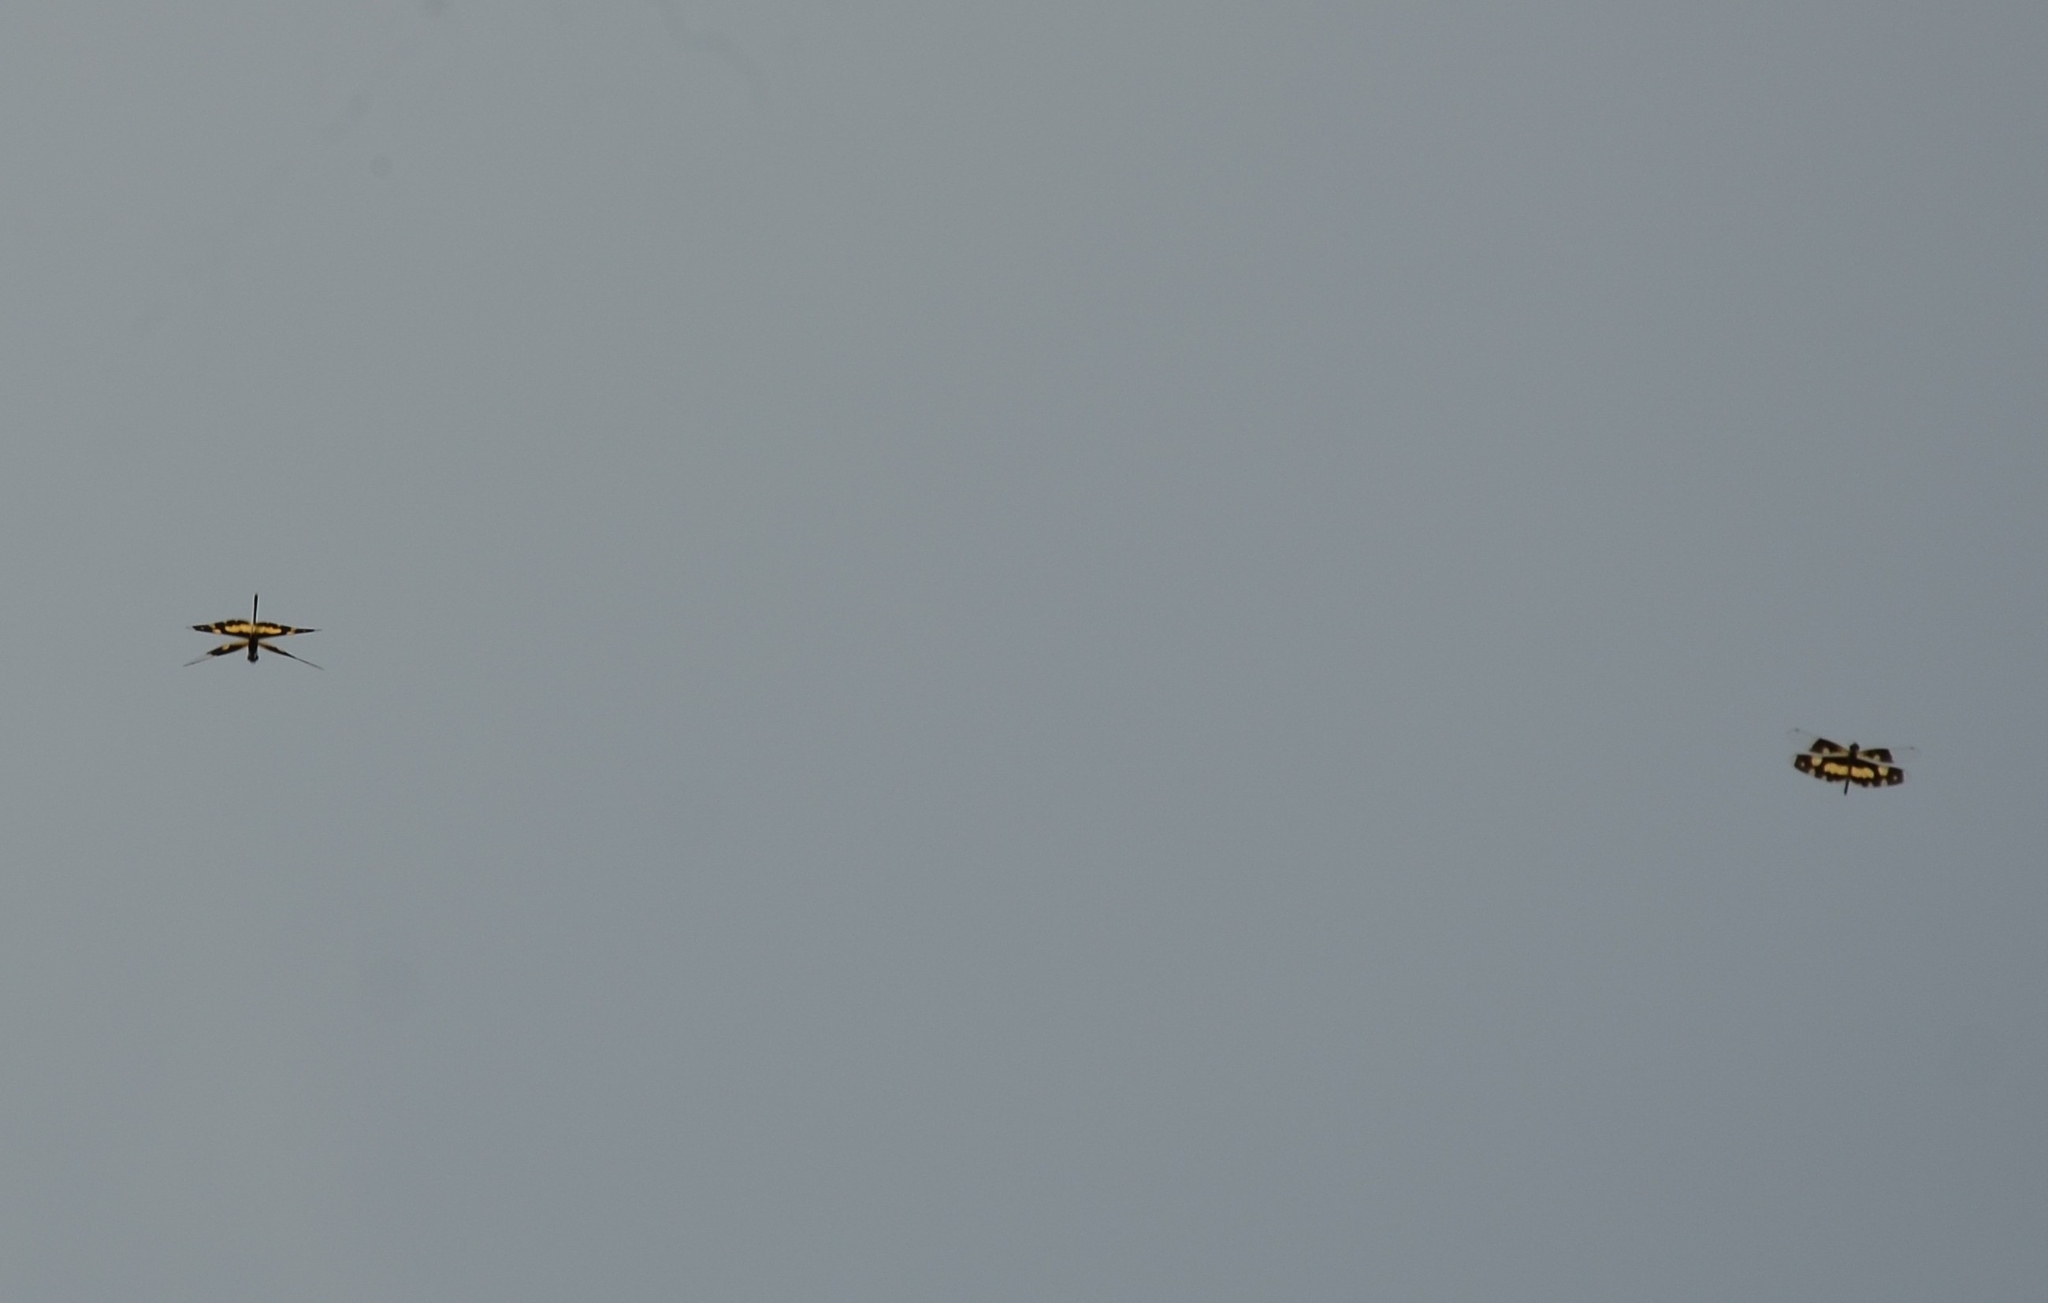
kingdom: Animalia
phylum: Arthropoda
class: Insecta
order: Odonata
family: Libellulidae
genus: Rhyothemis
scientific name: Rhyothemis variegata
